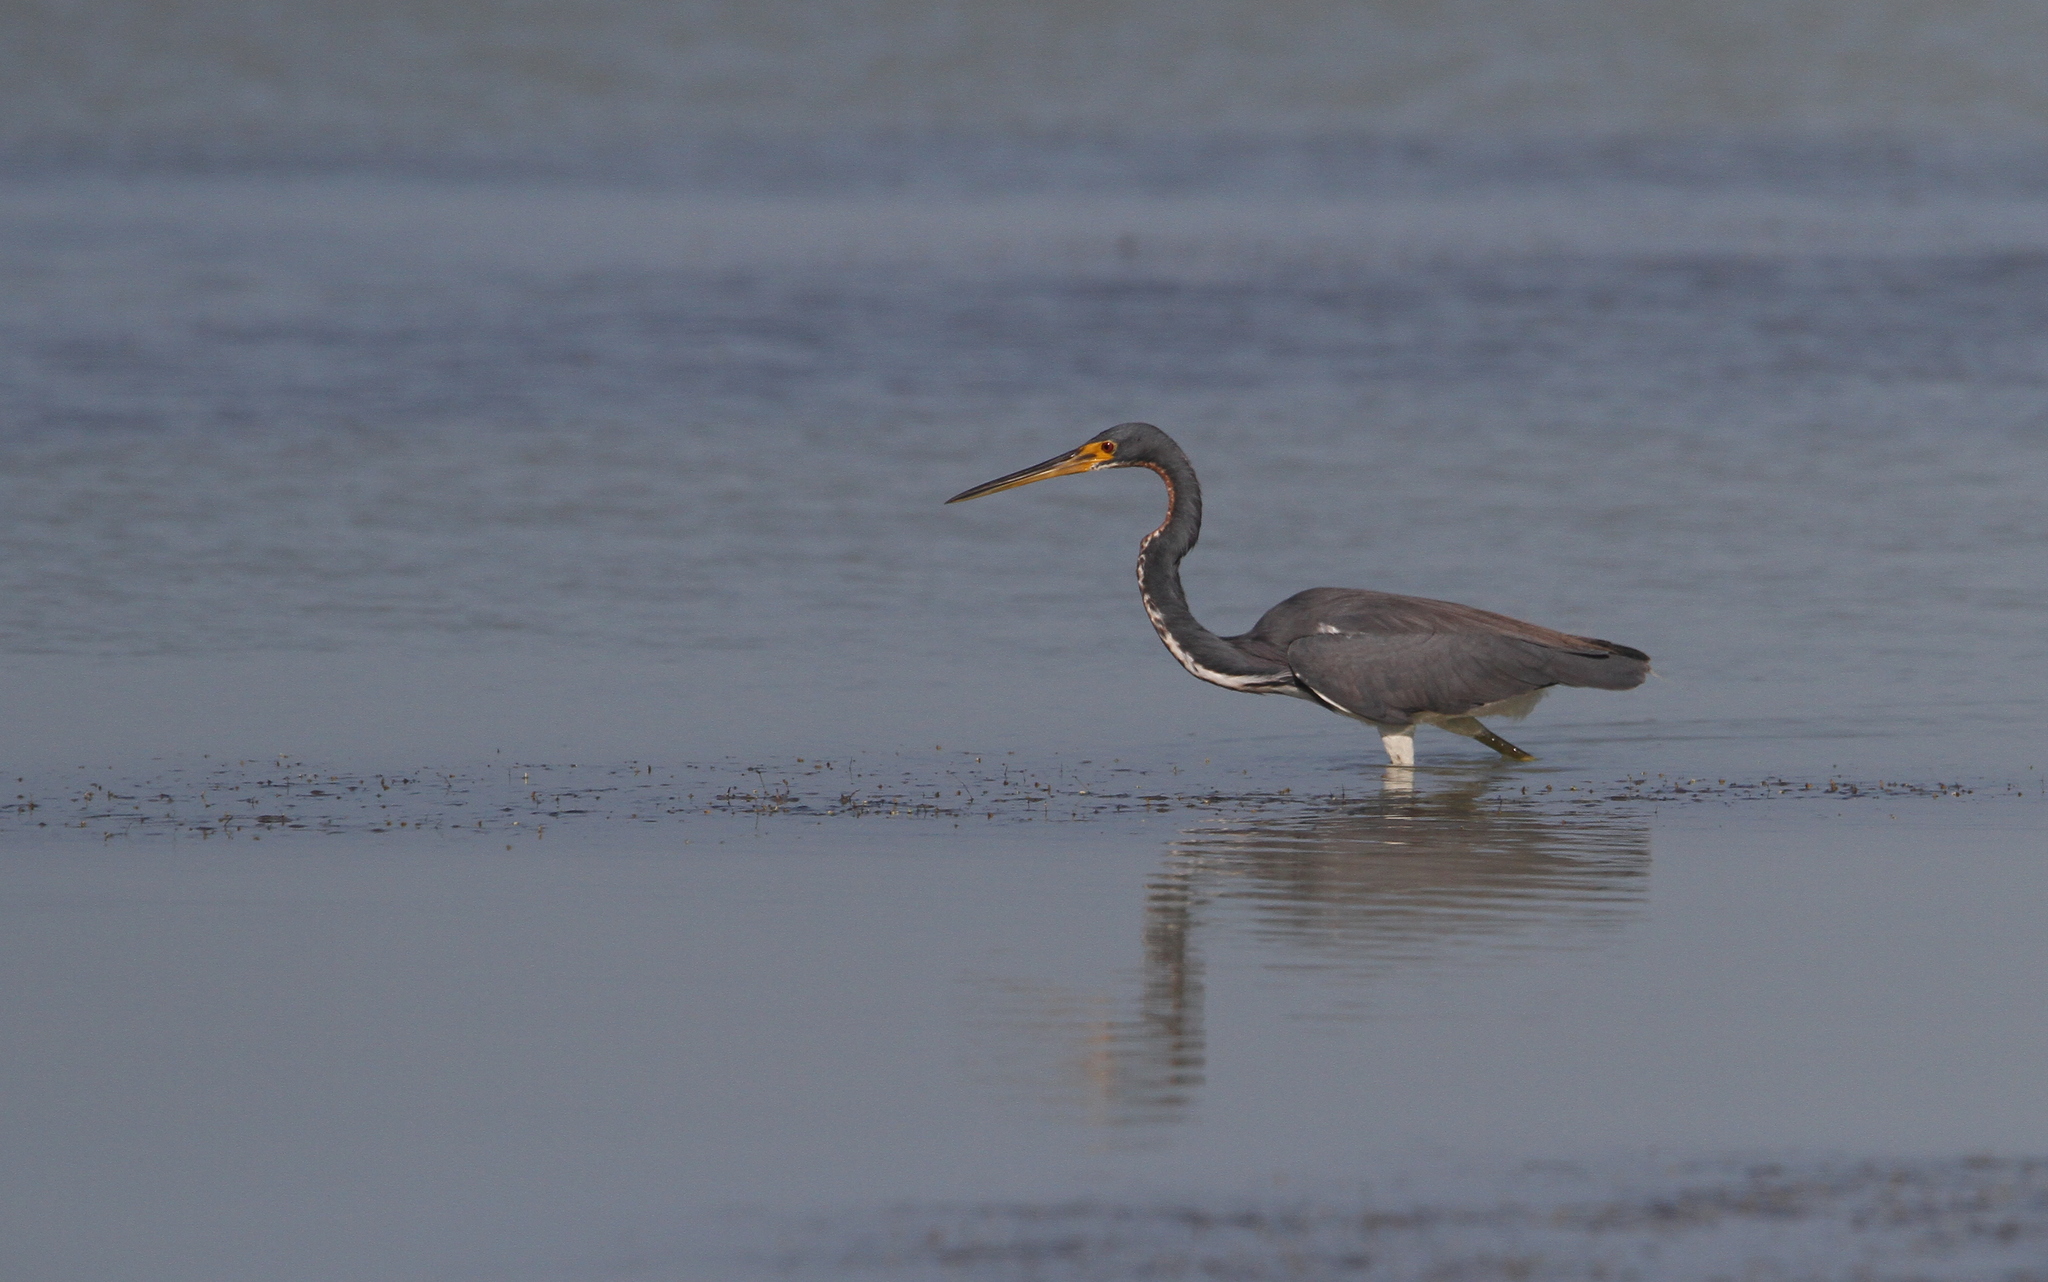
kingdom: Animalia
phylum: Chordata
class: Aves
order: Pelecaniformes
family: Ardeidae
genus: Egretta
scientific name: Egretta tricolor
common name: Tricolored heron
